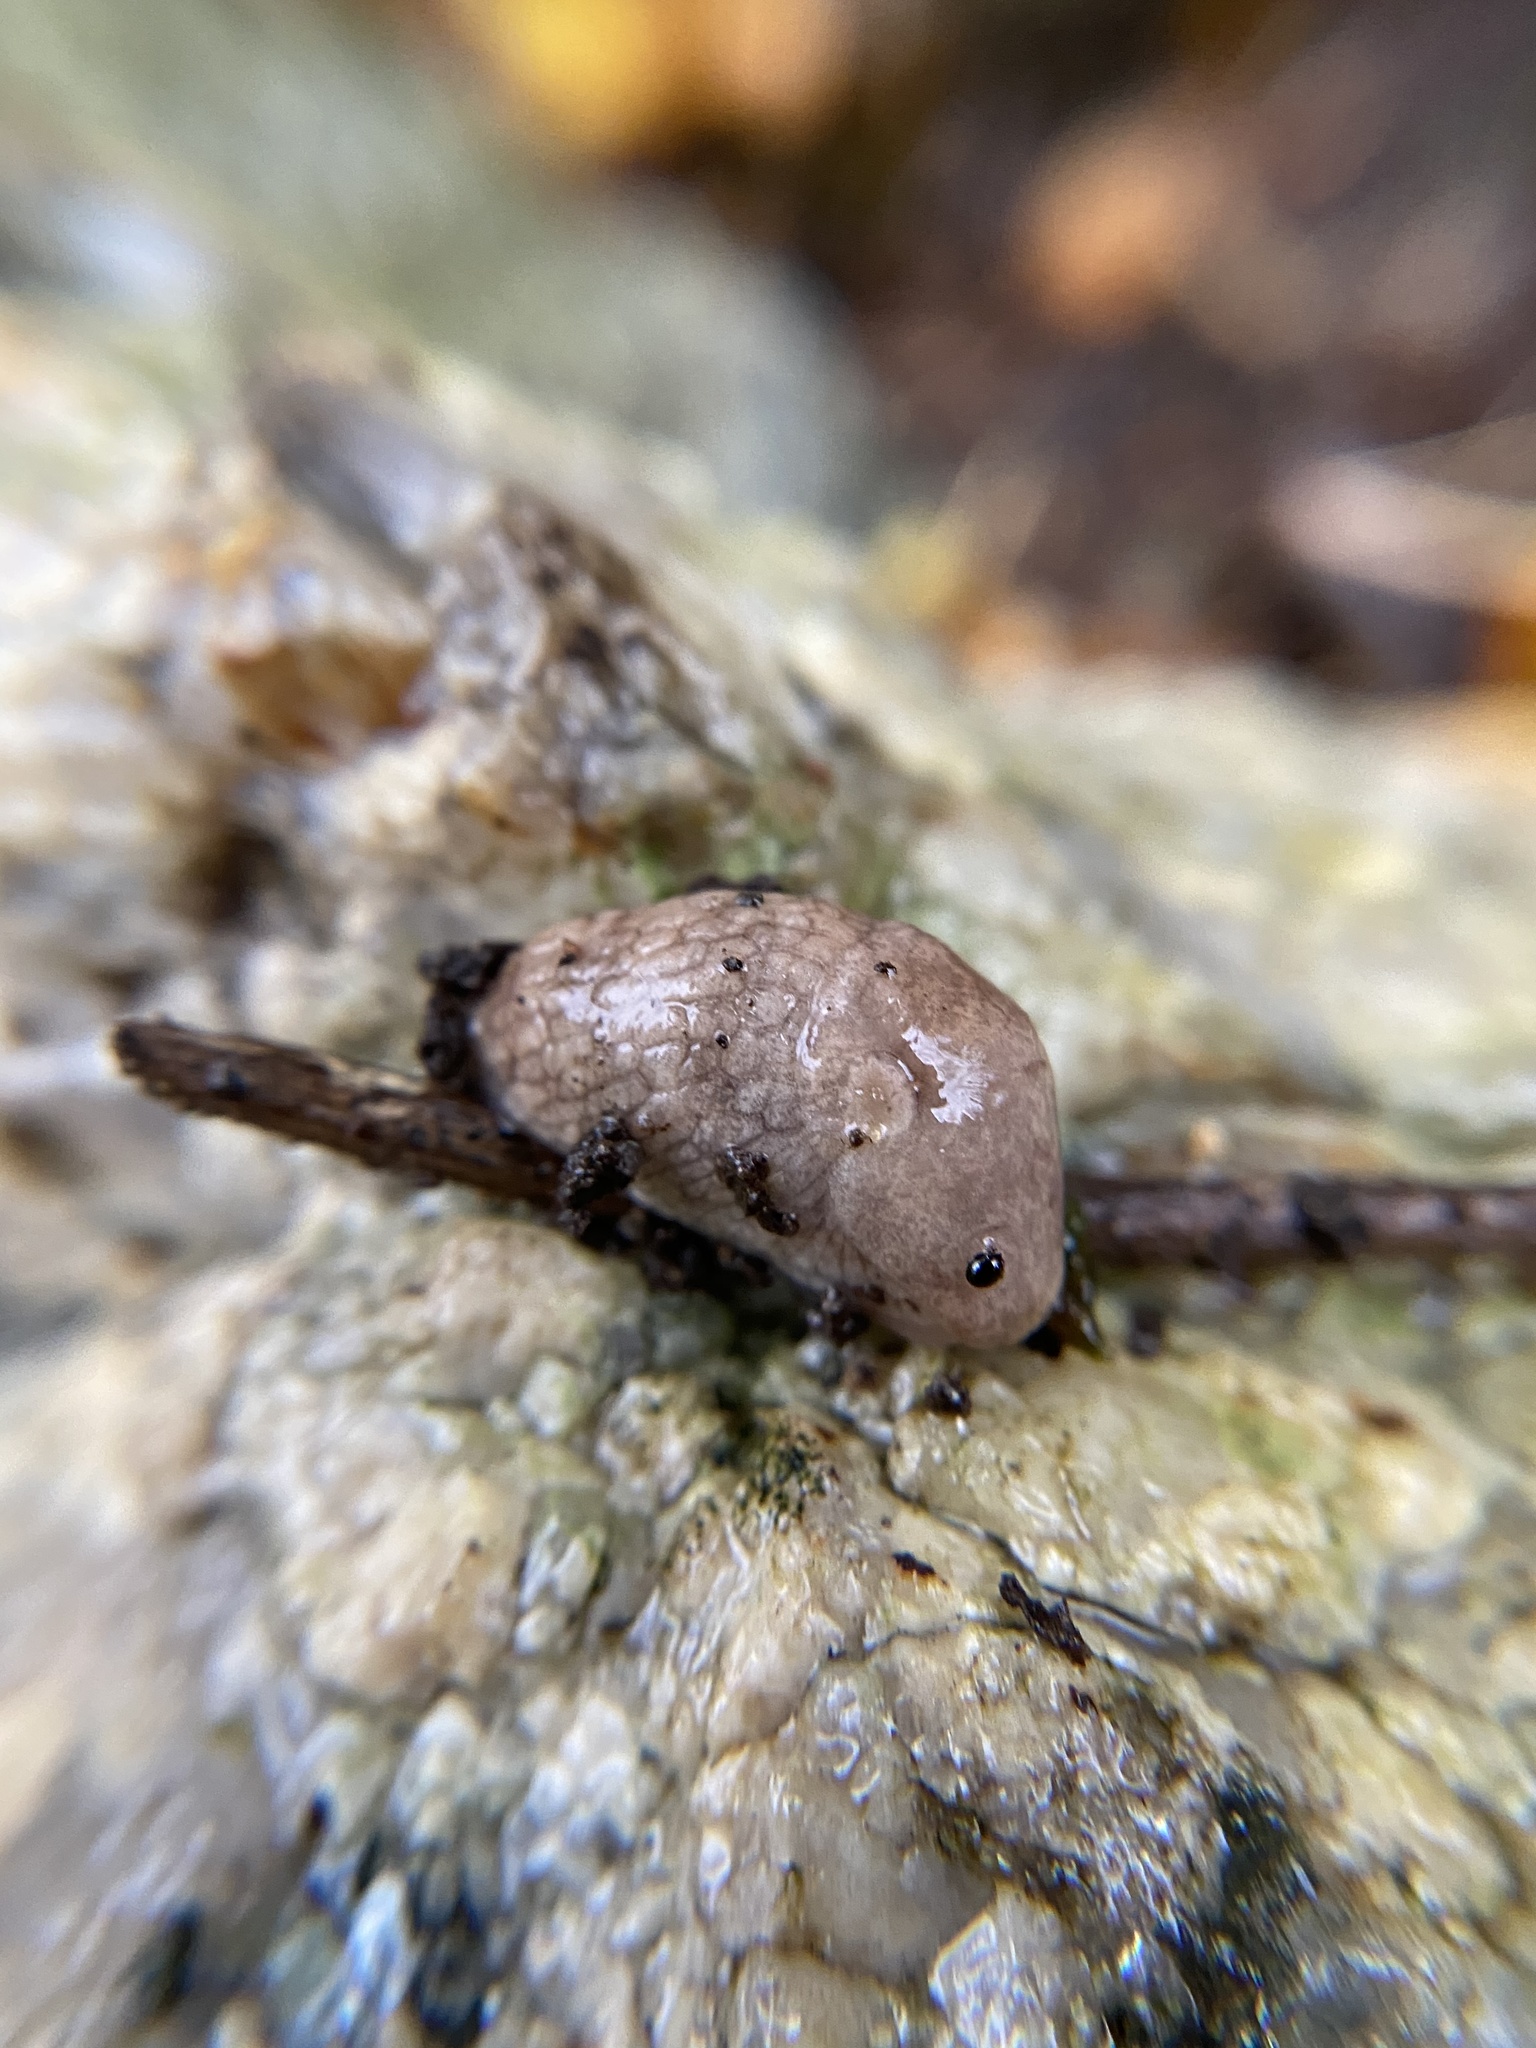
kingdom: Animalia
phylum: Mollusca
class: Gastropoda
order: Stylommatophora
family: Agriolimacidae
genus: Deroceras
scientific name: Deroceras reticulatum
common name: Gray field slug
